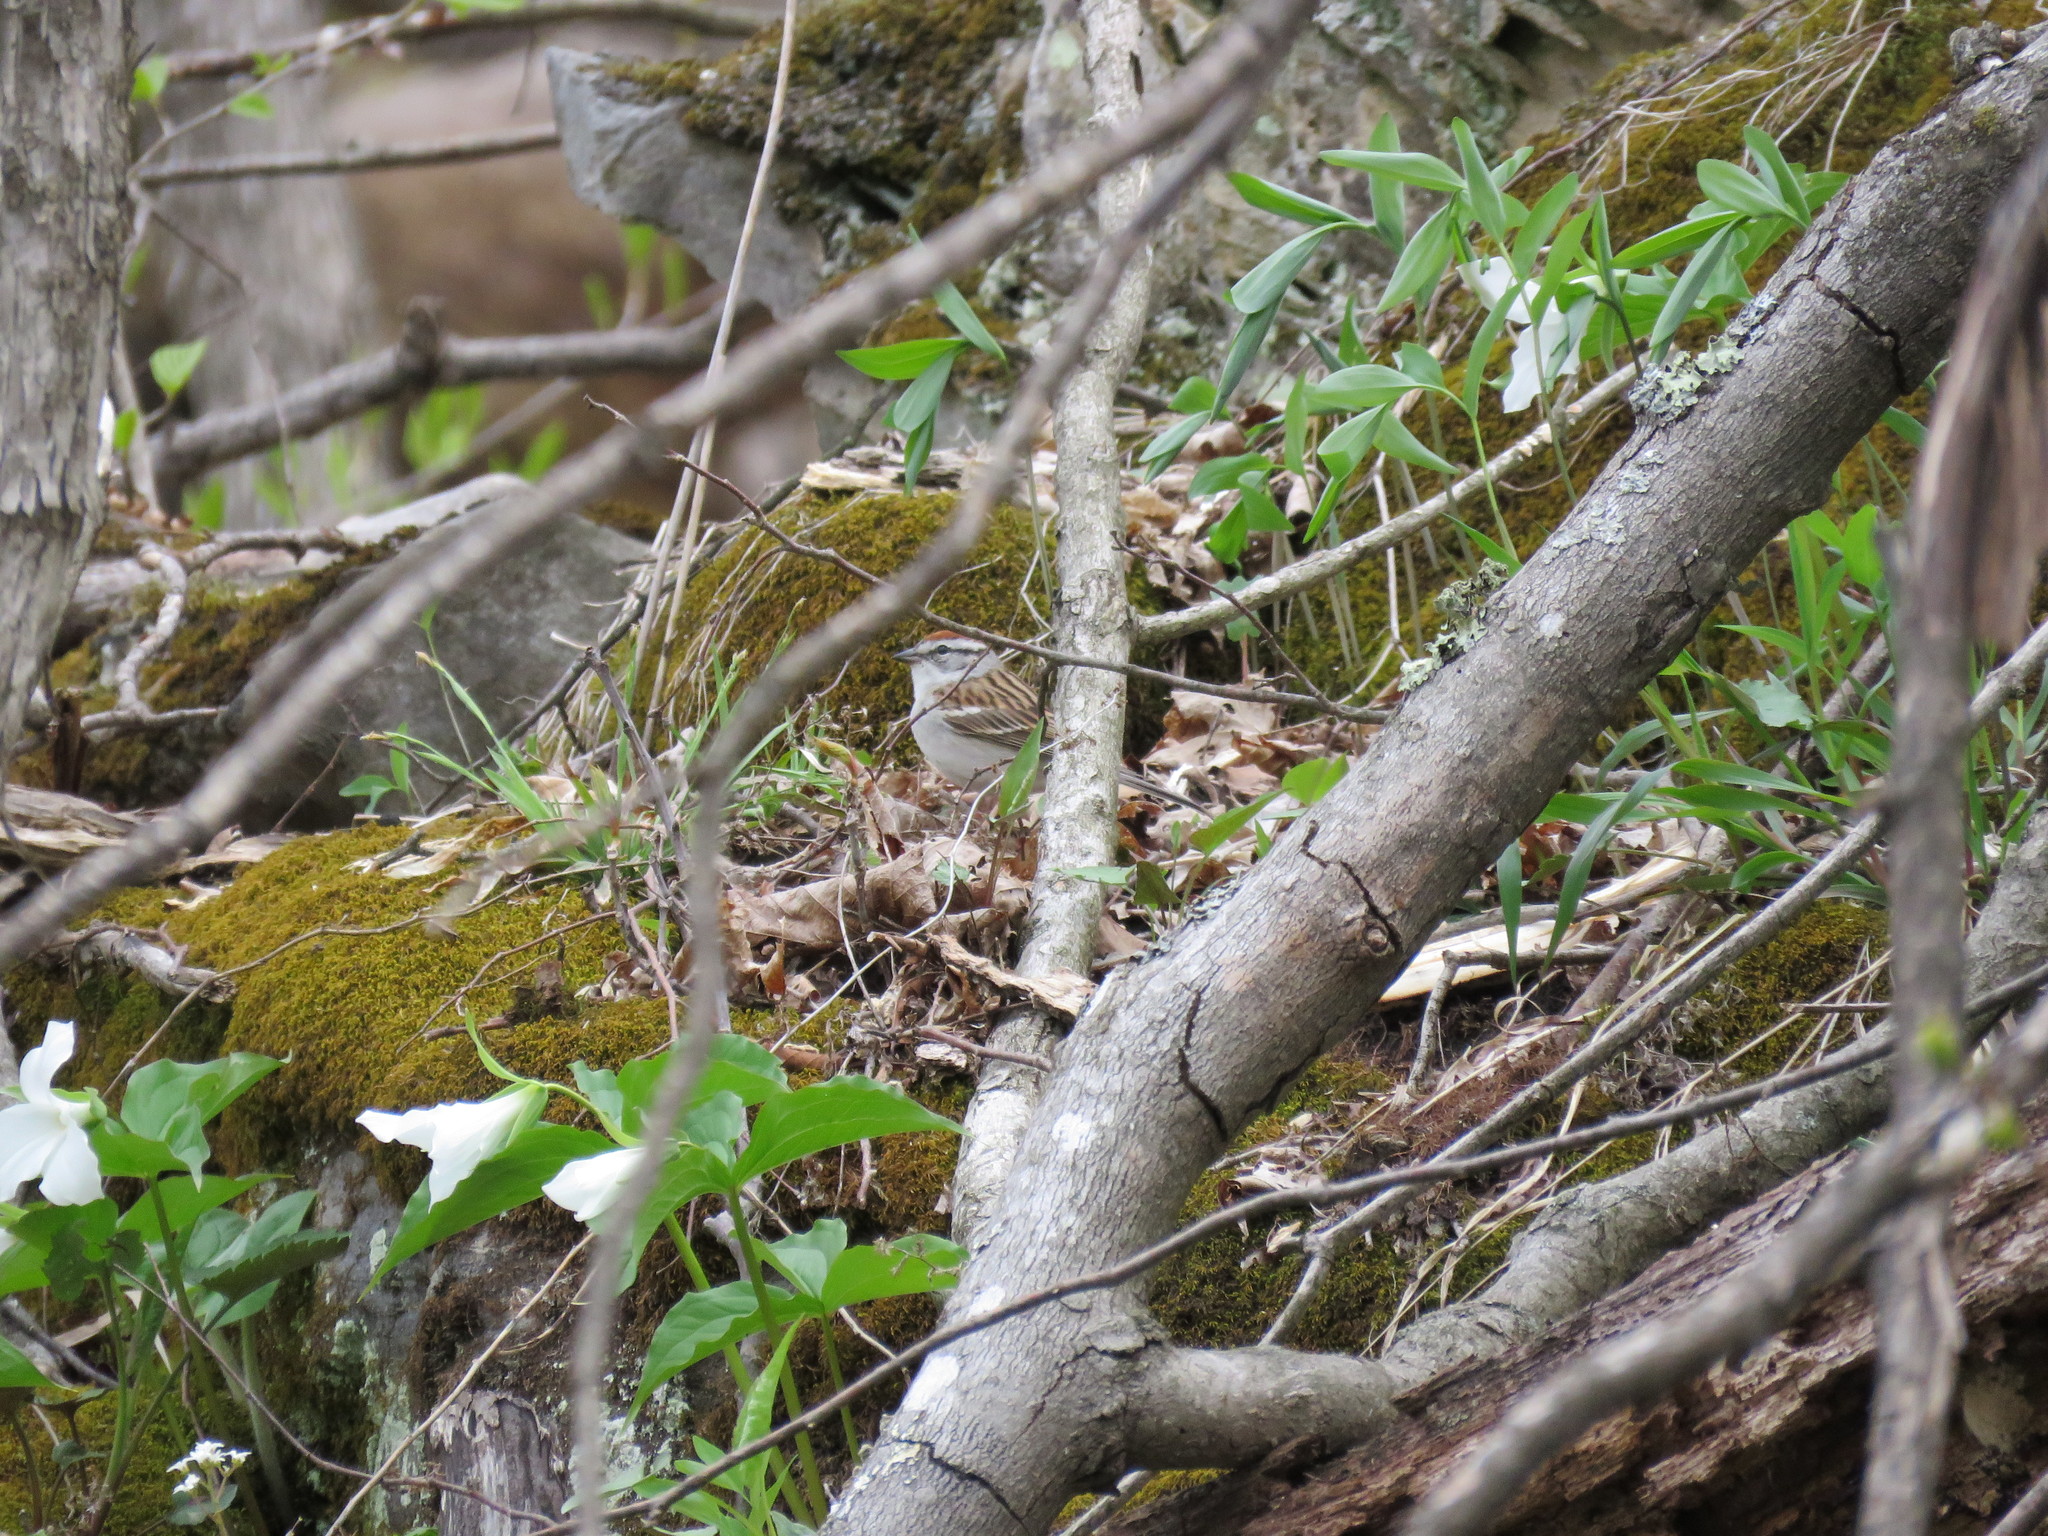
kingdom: Animalia
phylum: Chordata
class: Aves
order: Passeriformes
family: Passerellidae
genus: Spizella
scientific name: Spizella passerina
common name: Chipping sparrow
